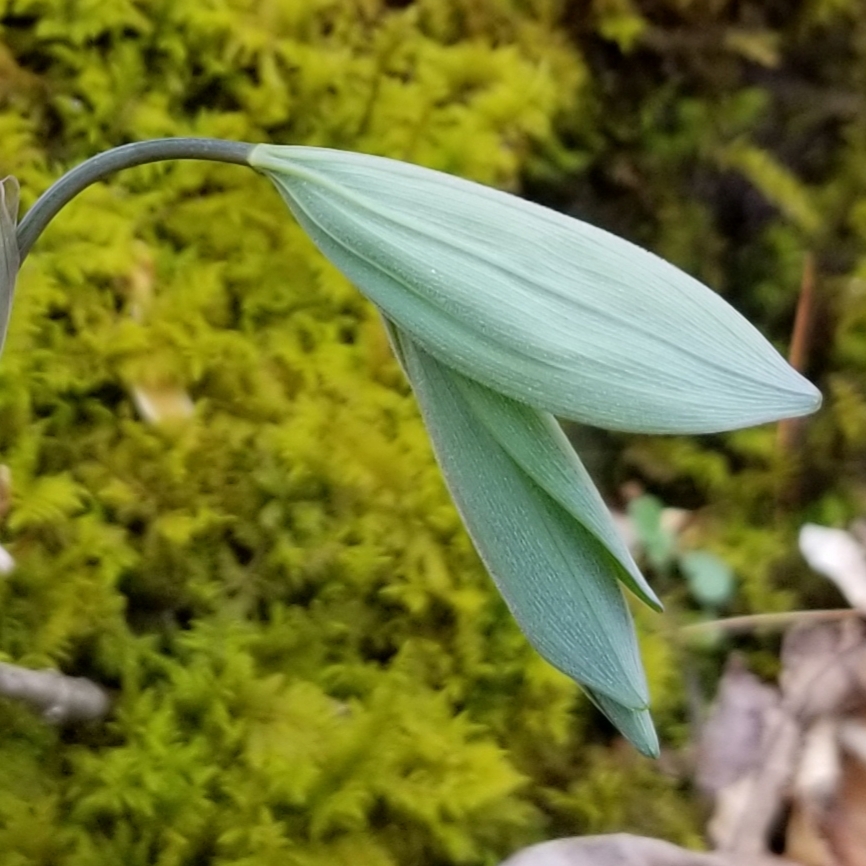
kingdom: Plantae
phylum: Tracheophyta
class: Liliopsida
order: Asparagales
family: Asparagaceae
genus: Polygonatum
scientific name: Polygonatum pubescens
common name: Downy solomon's seal
